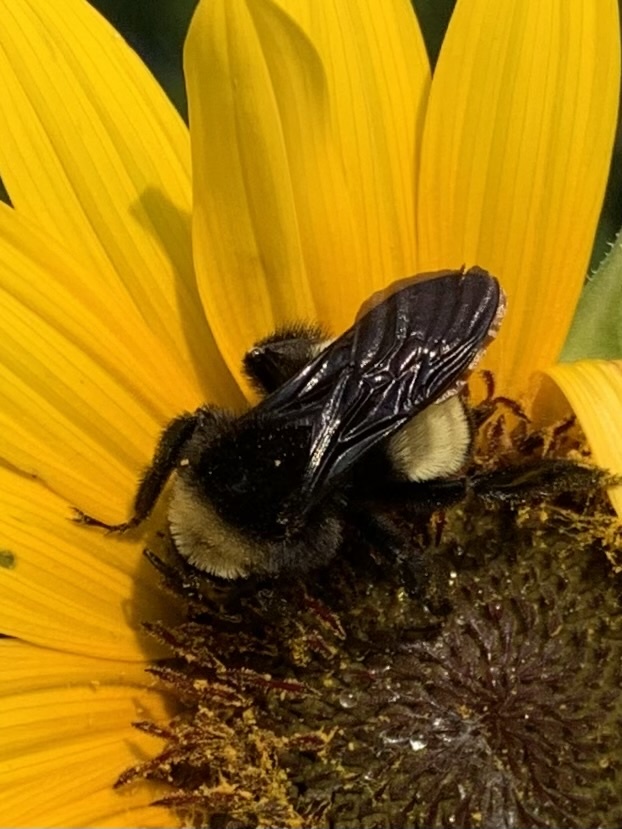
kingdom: Animalia
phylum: Arthropoda
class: Insecta
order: Hymenoptera
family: Apidae
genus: Bombus
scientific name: Bombus pensylvanicus
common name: Bumble bee
